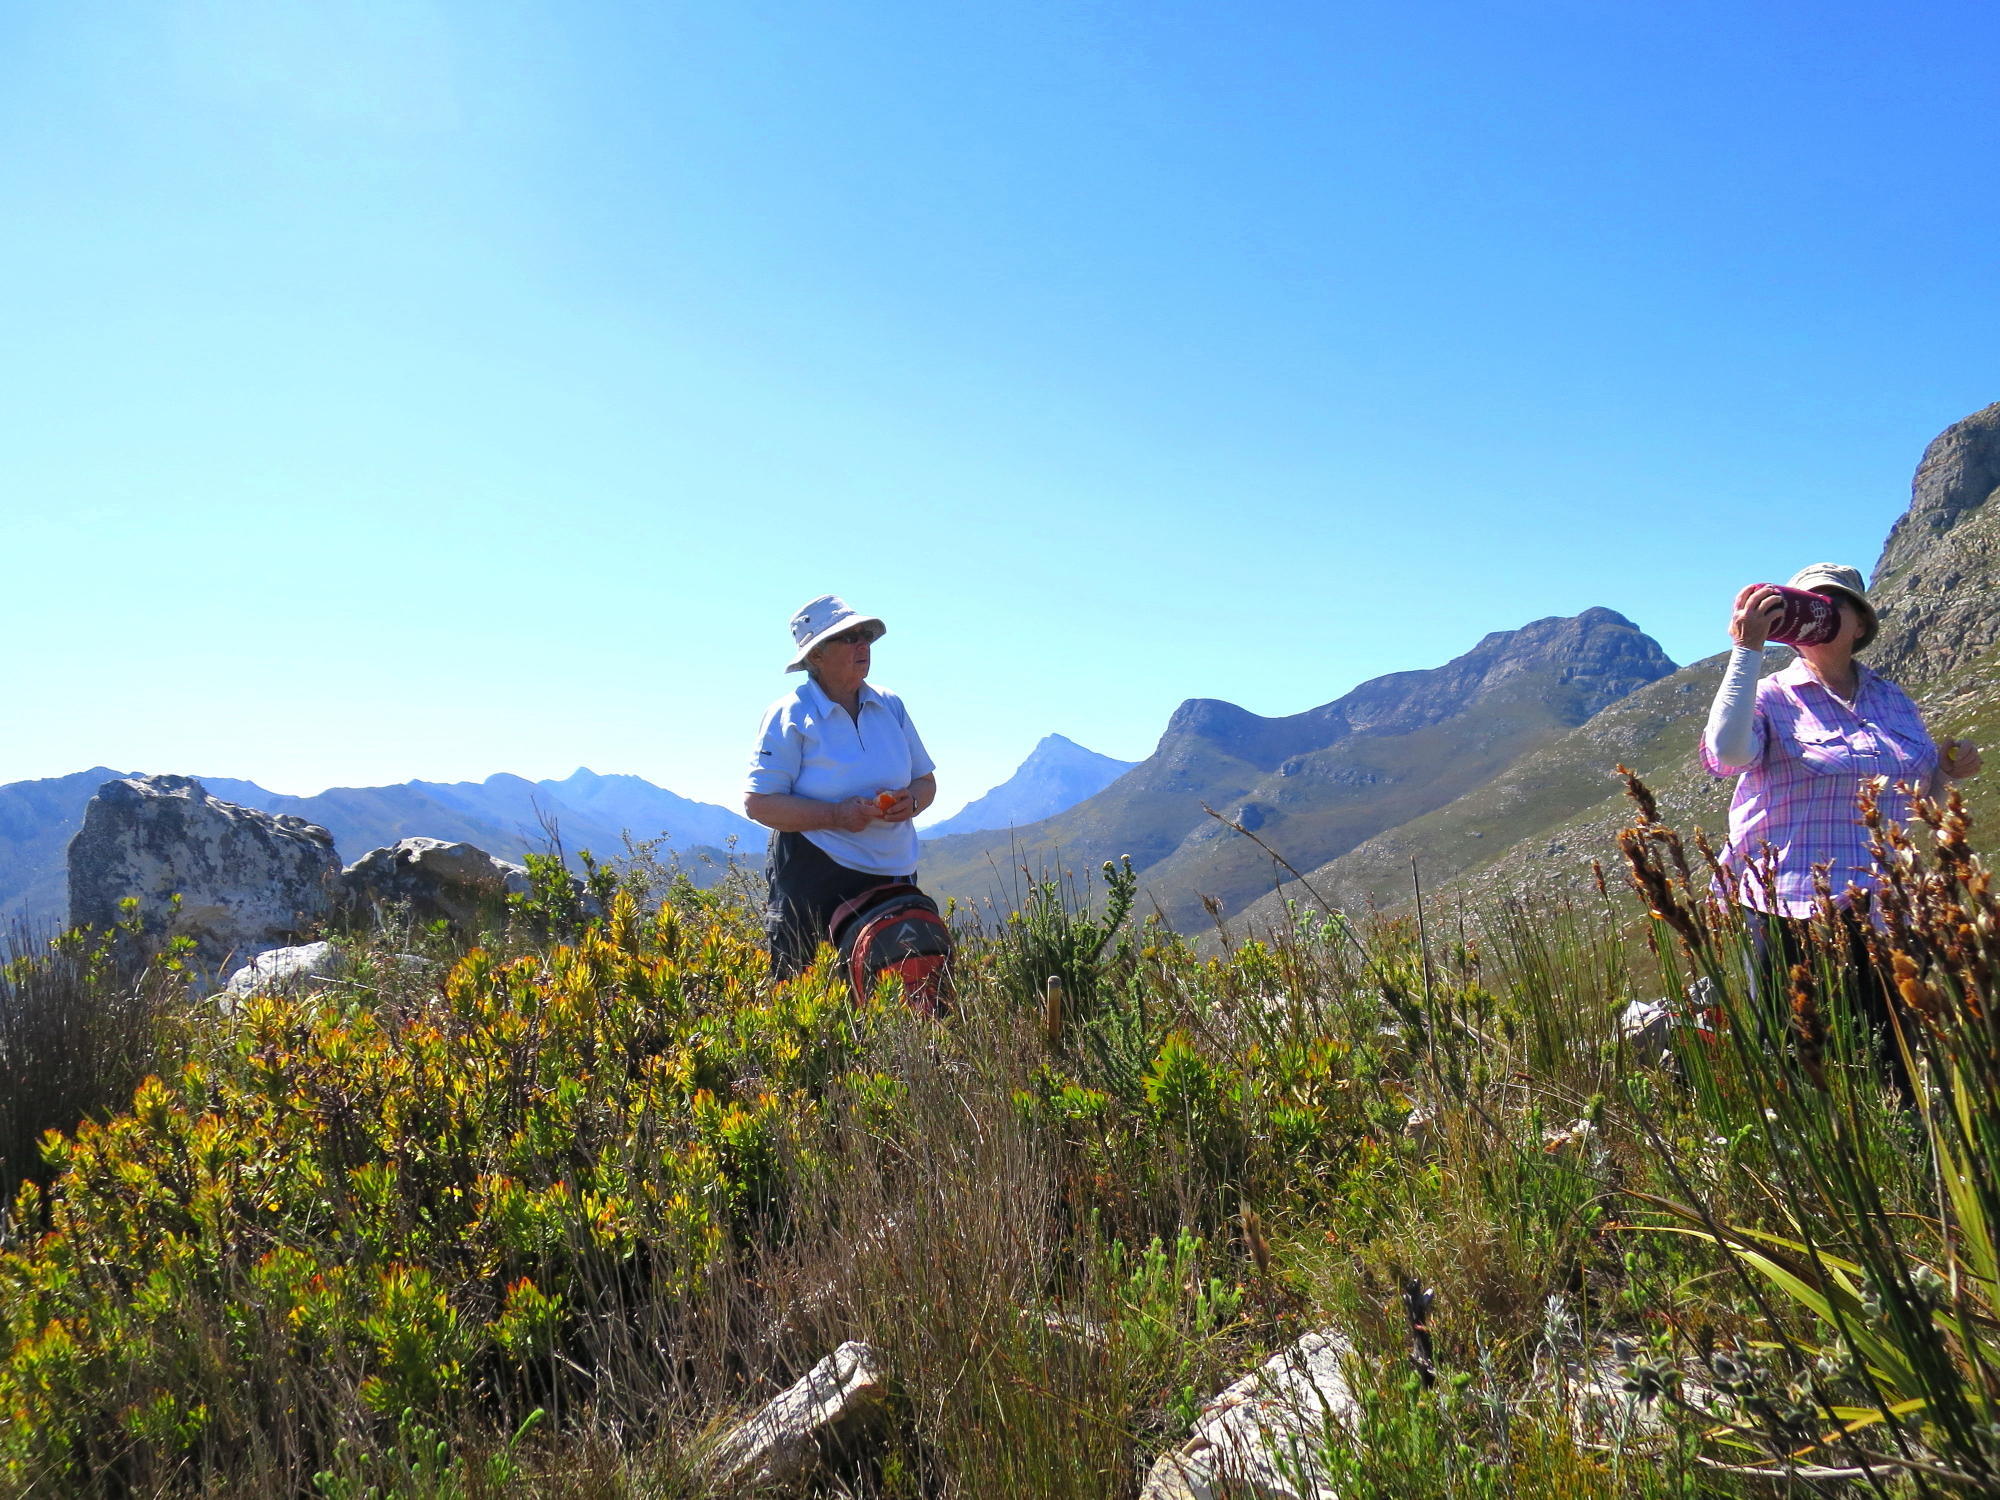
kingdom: Plantae
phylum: Tracheophyta
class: Liliopsida
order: Poales
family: Restionaceae
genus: Elegia
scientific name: Elegia thyrsoidea
